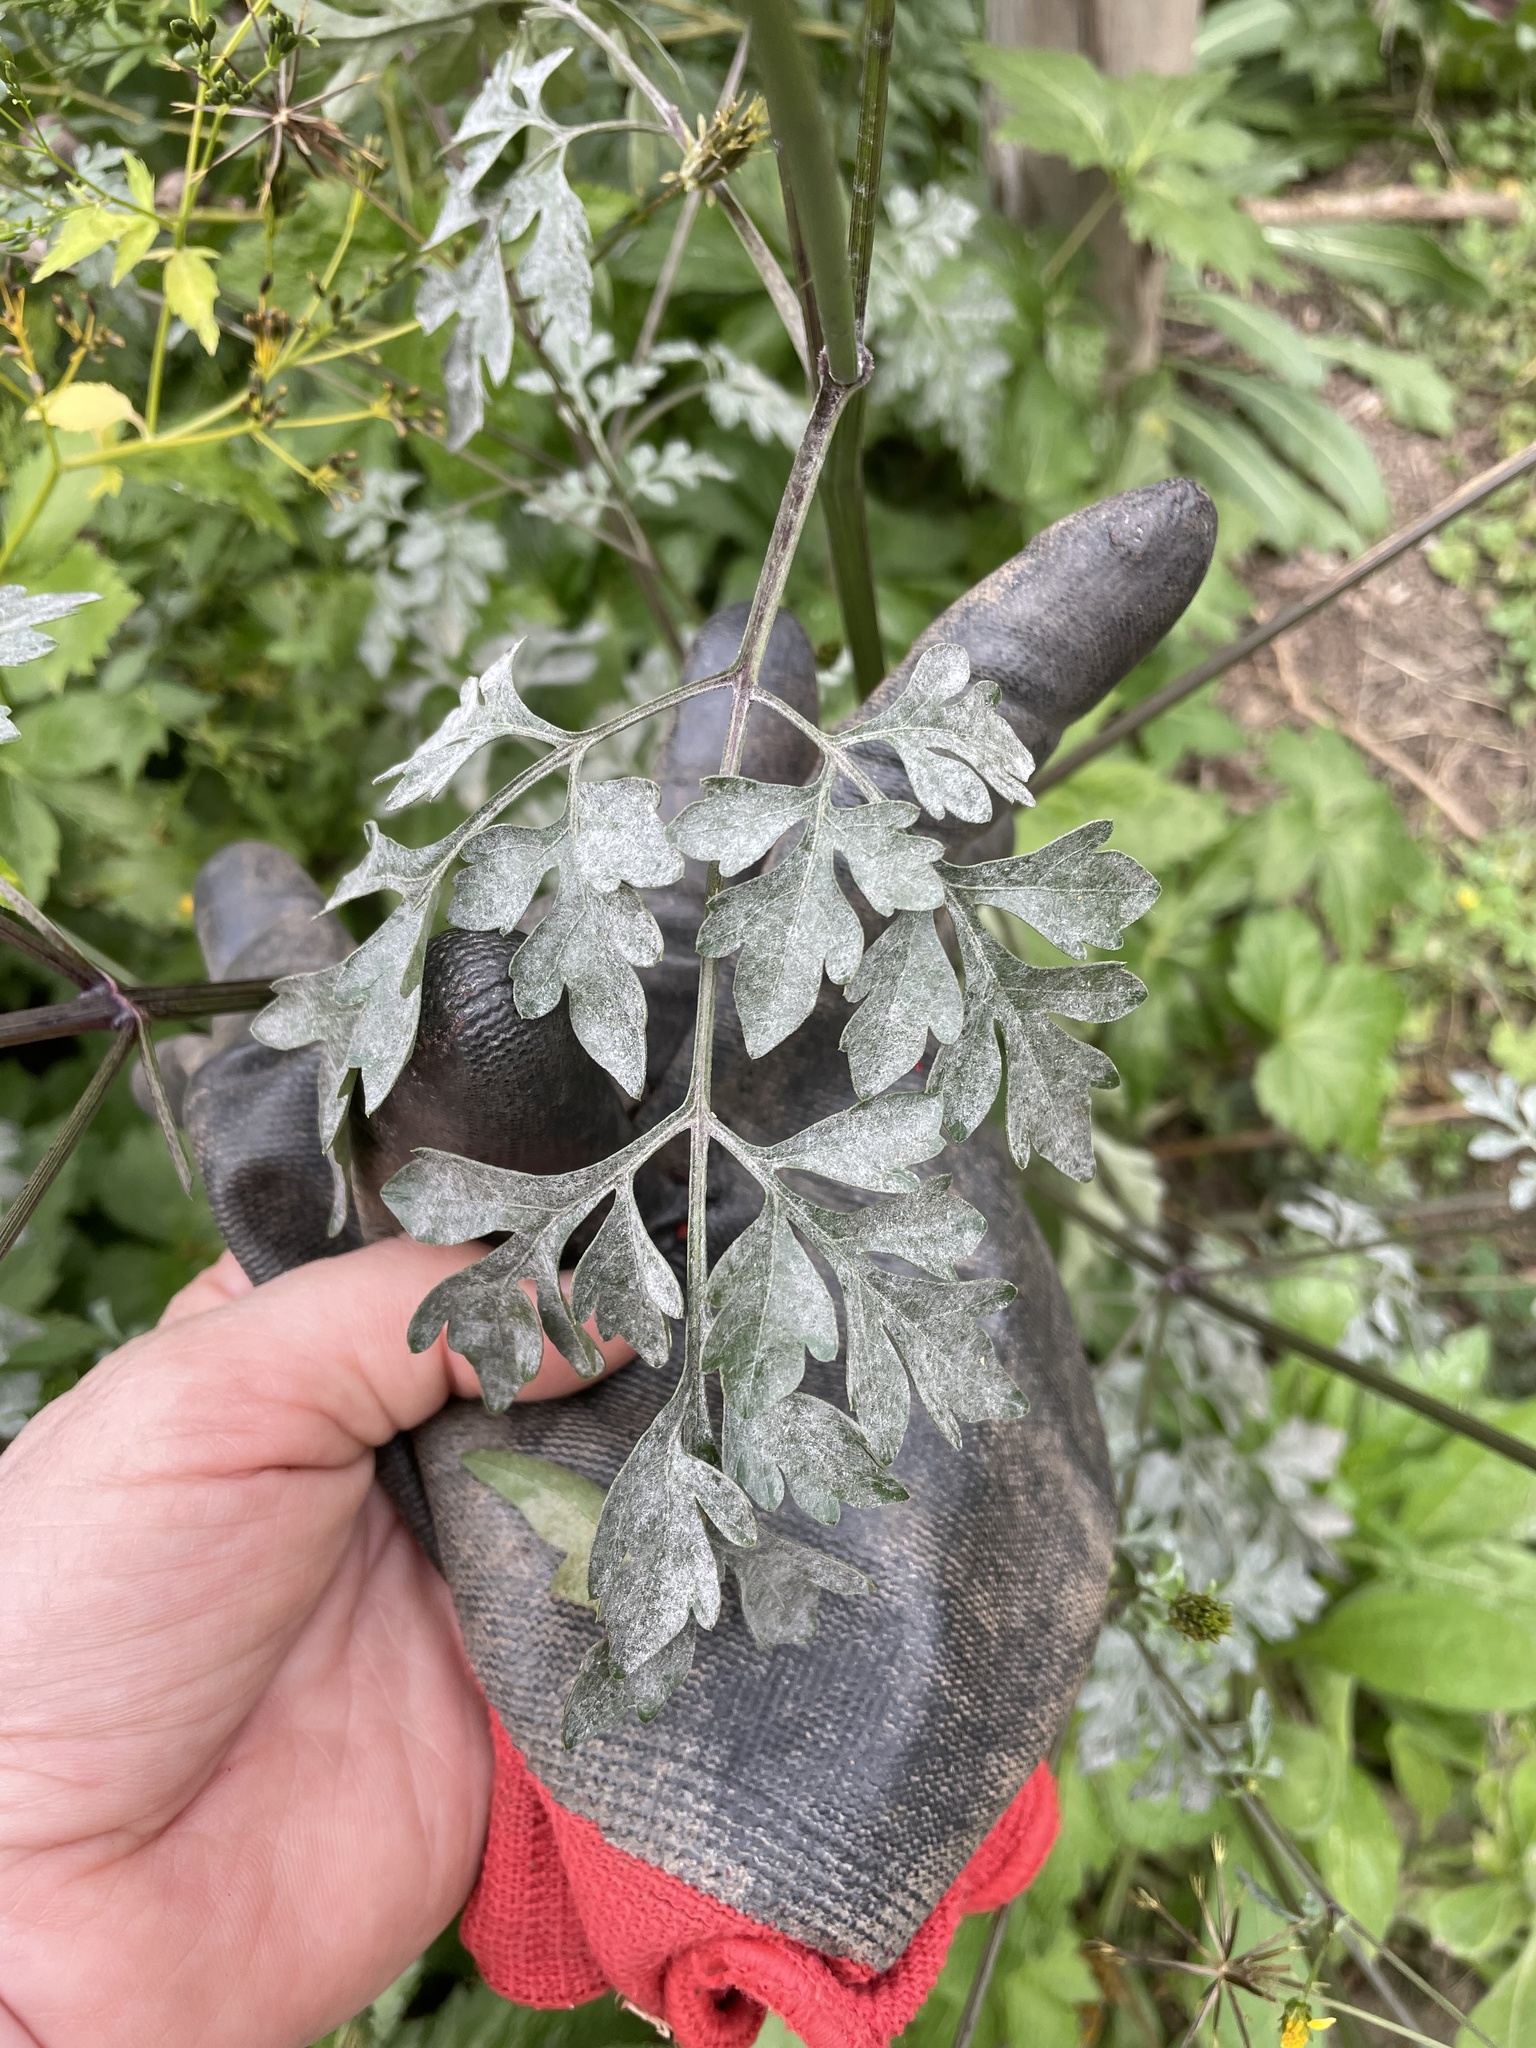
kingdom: Plantae
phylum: Tracheophyta
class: Magnoliopsida
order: Asterales
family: Asteraceae
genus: Bidens
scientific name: Bidens bipinnata
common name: Spanish-needles
